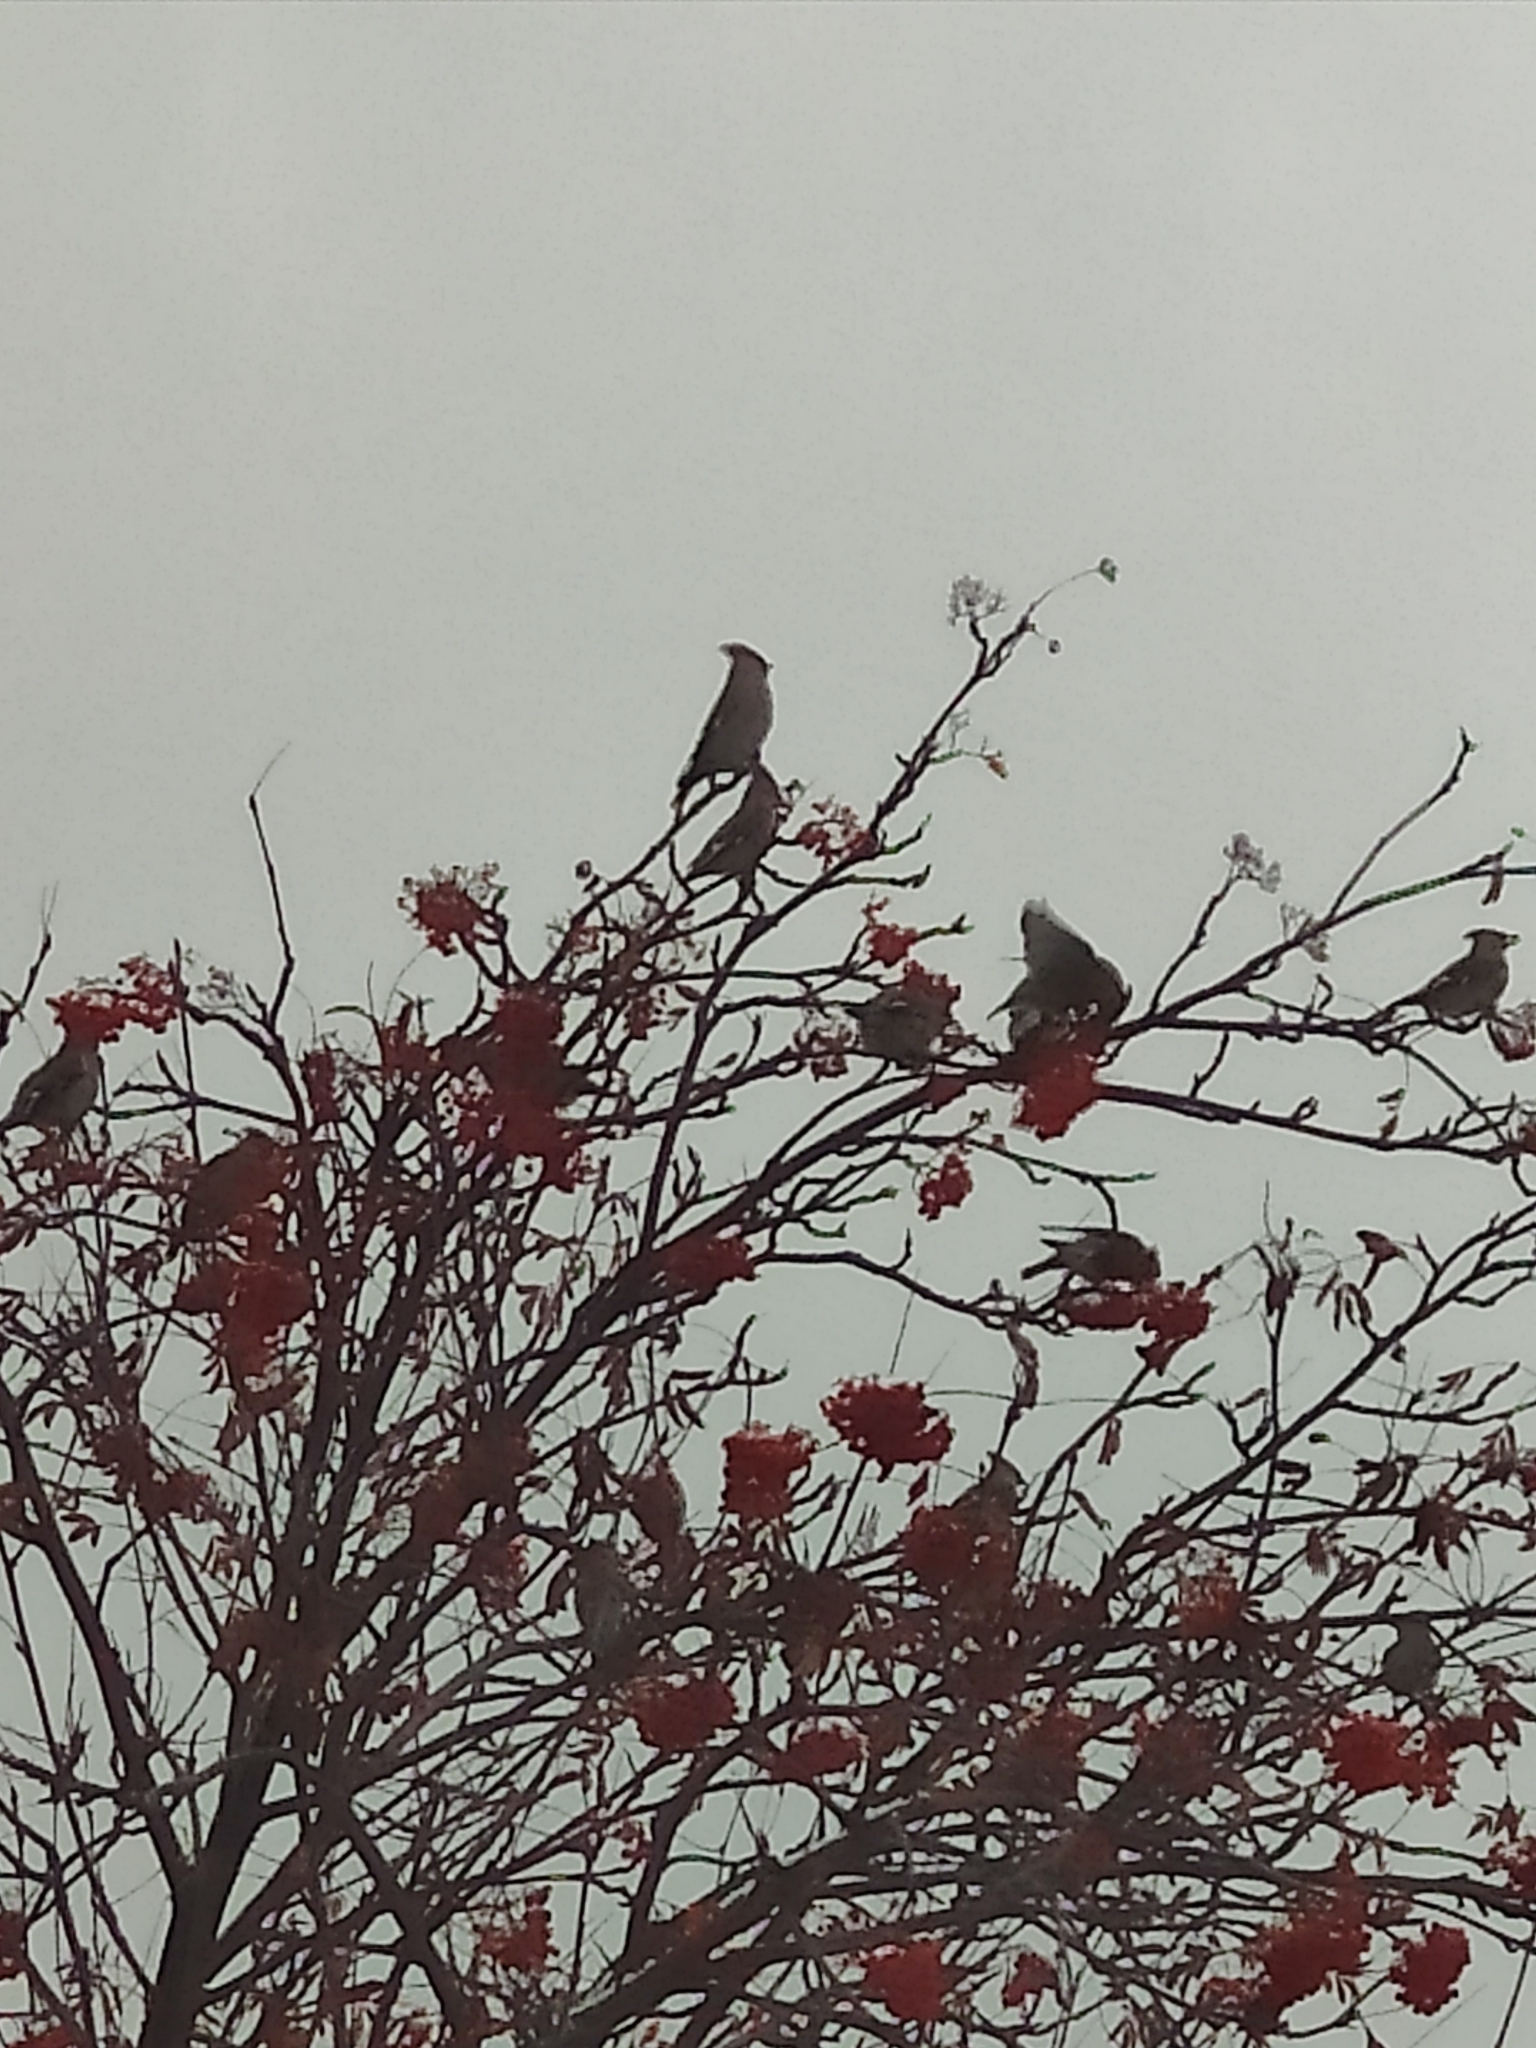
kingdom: Animalia
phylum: Chordata
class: Aves
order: Passeriformes
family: Bombycillidae
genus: Bombycilla
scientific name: Bombycilla garrulus
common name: Bohemian waxwing
